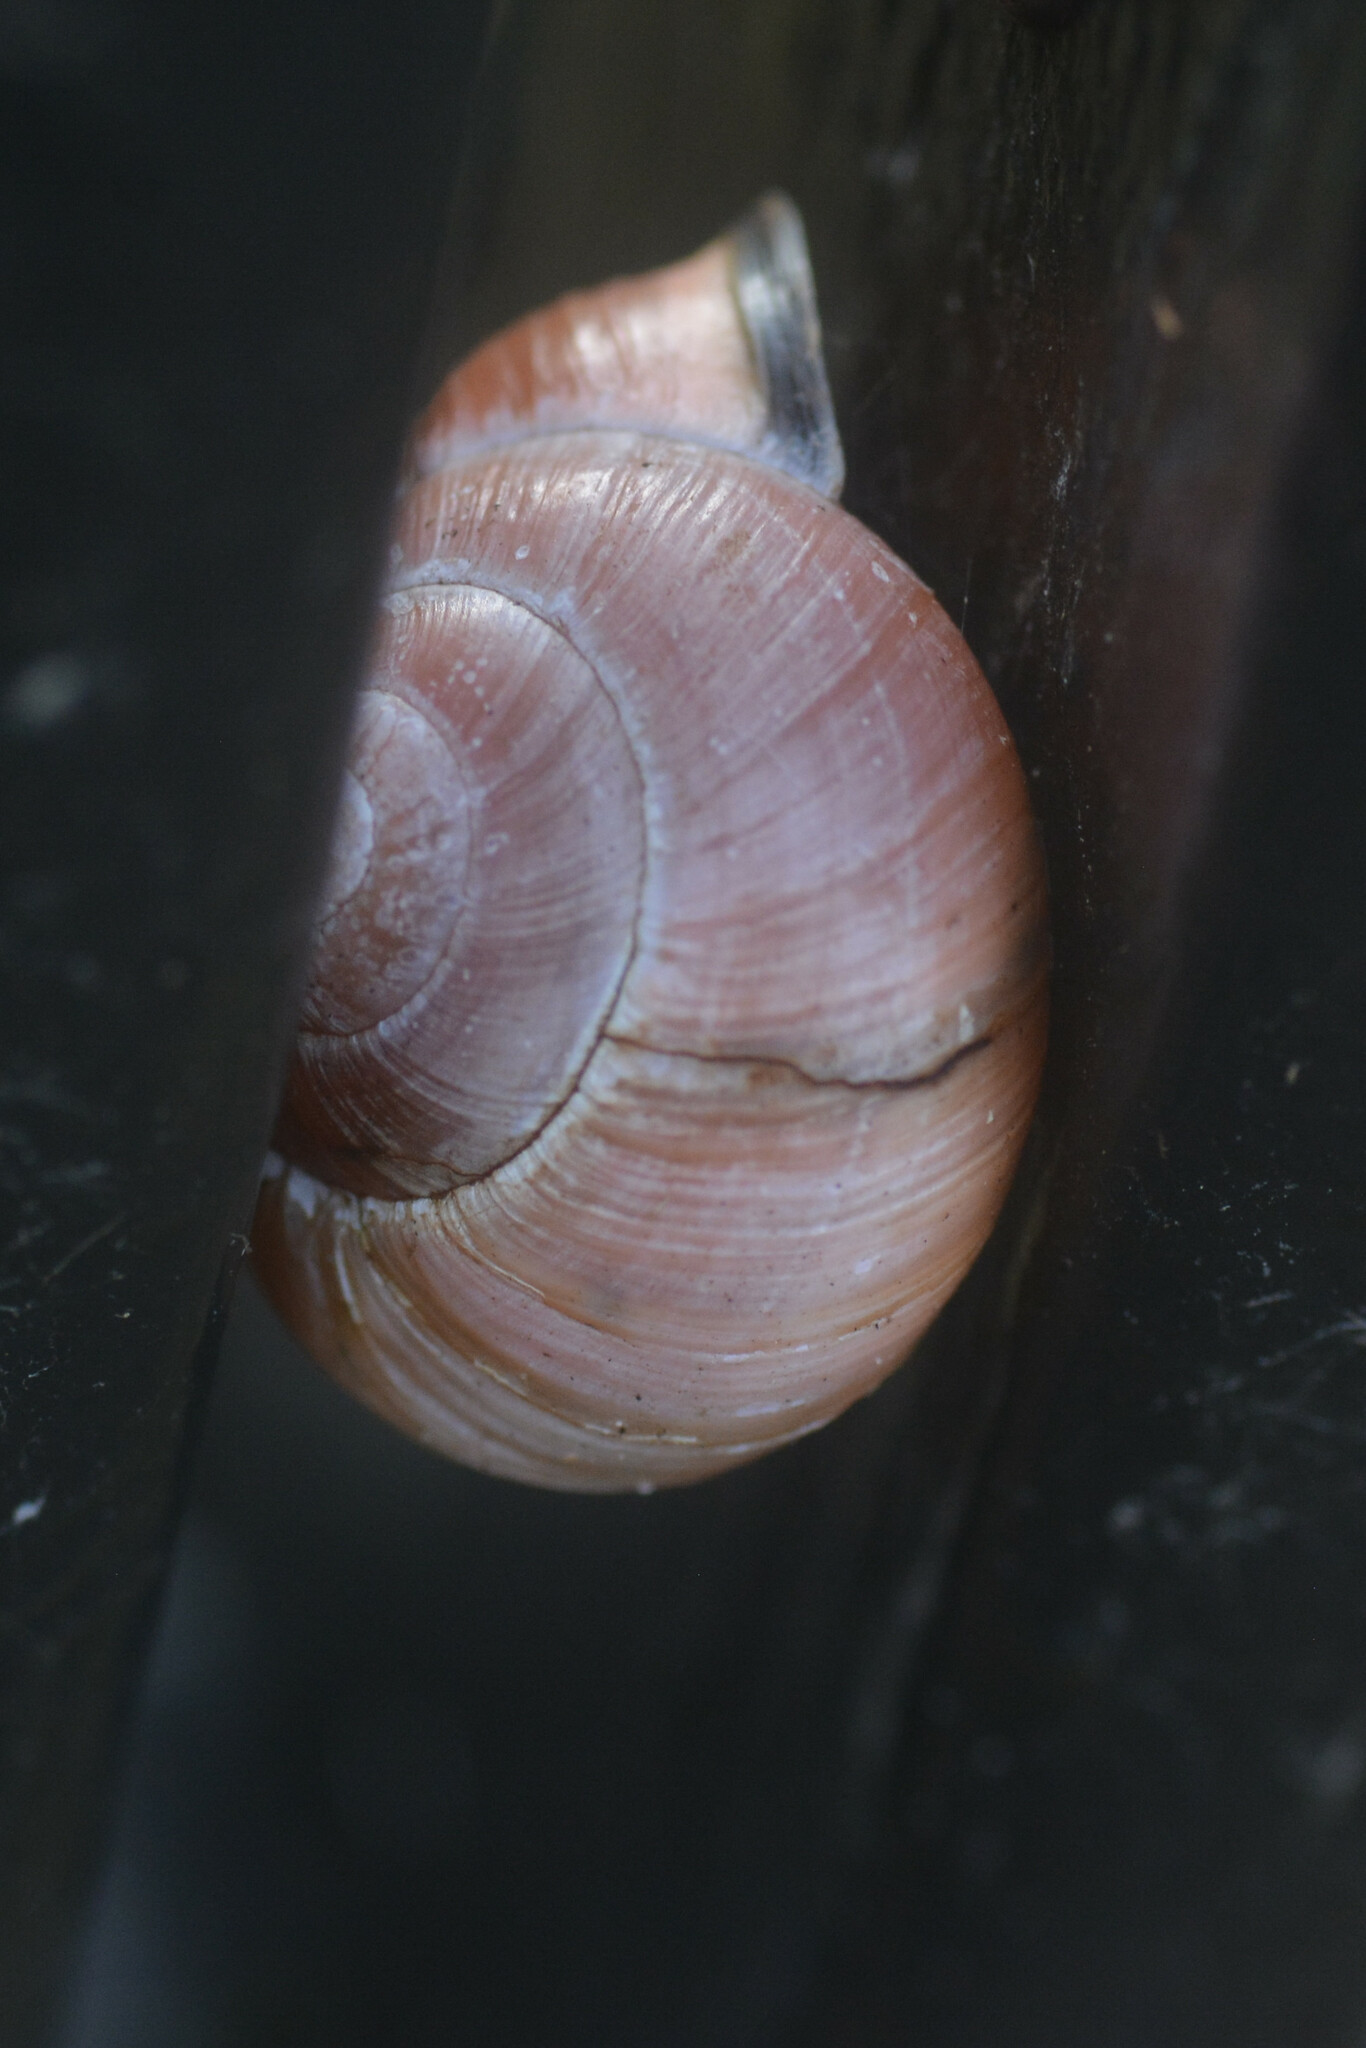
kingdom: Animalia
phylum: Mollusca
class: Gastropoda
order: Stylommatophora
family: Helicidae
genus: Cepaea
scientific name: Cepaea nemoralis
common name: Grovesnail
